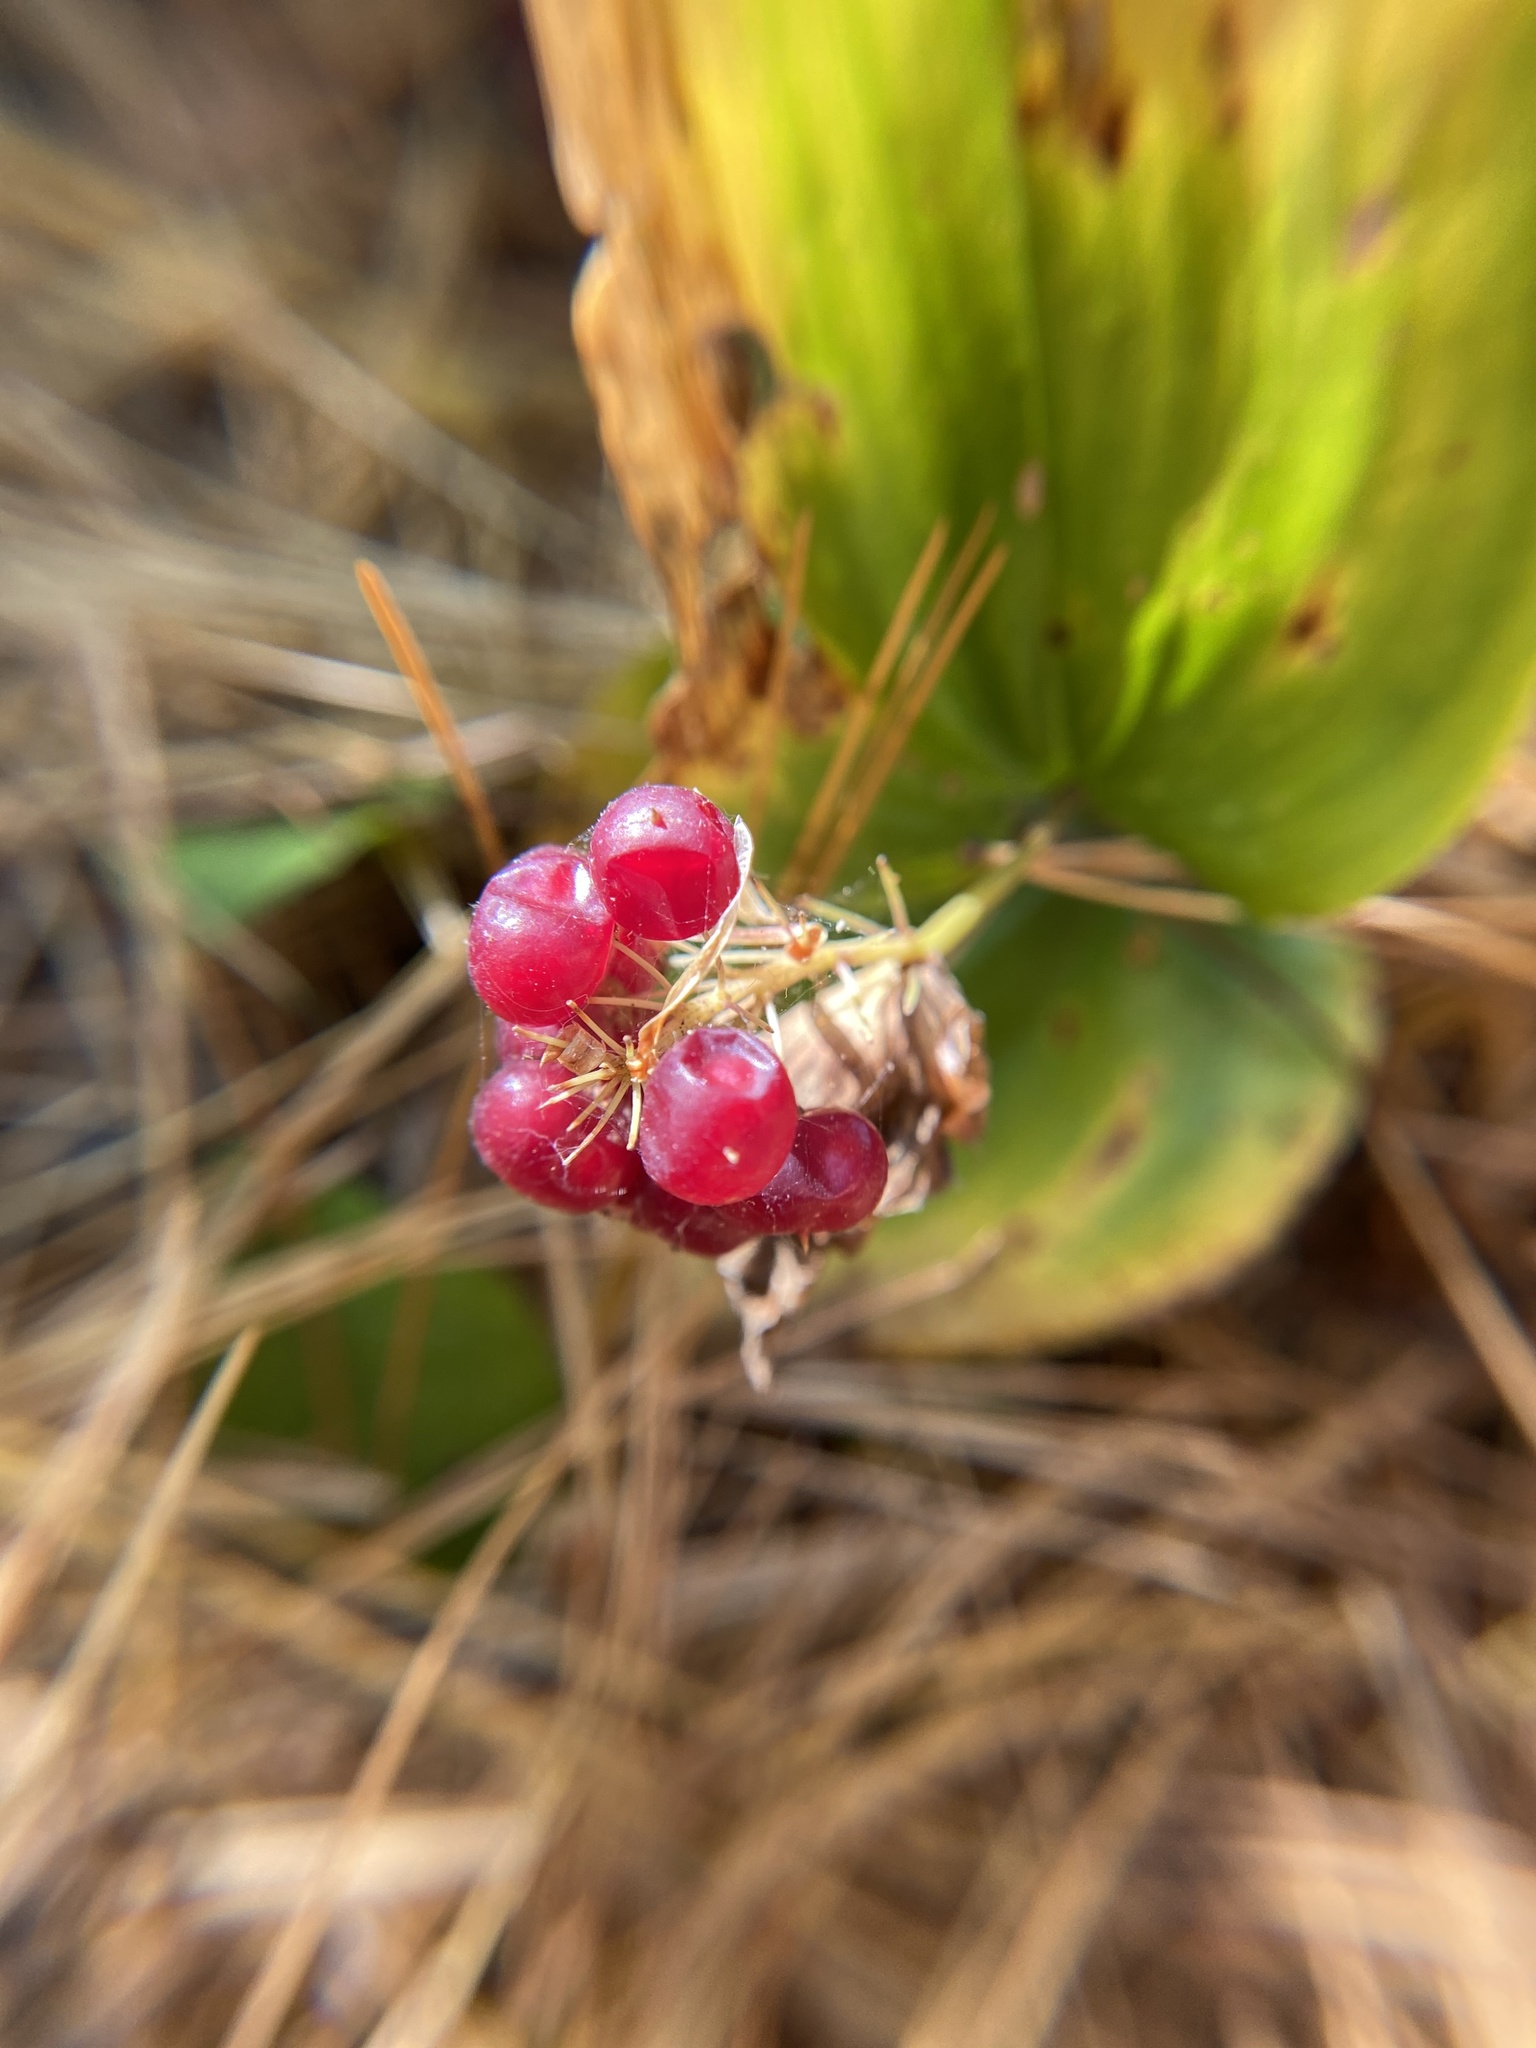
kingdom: Plantae
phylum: Tracheophyta
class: Liliopsida
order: Asparagales
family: Asparagaceae
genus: Maianthemum
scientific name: Maianthemum canadense
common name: False lily-of-the-valley
